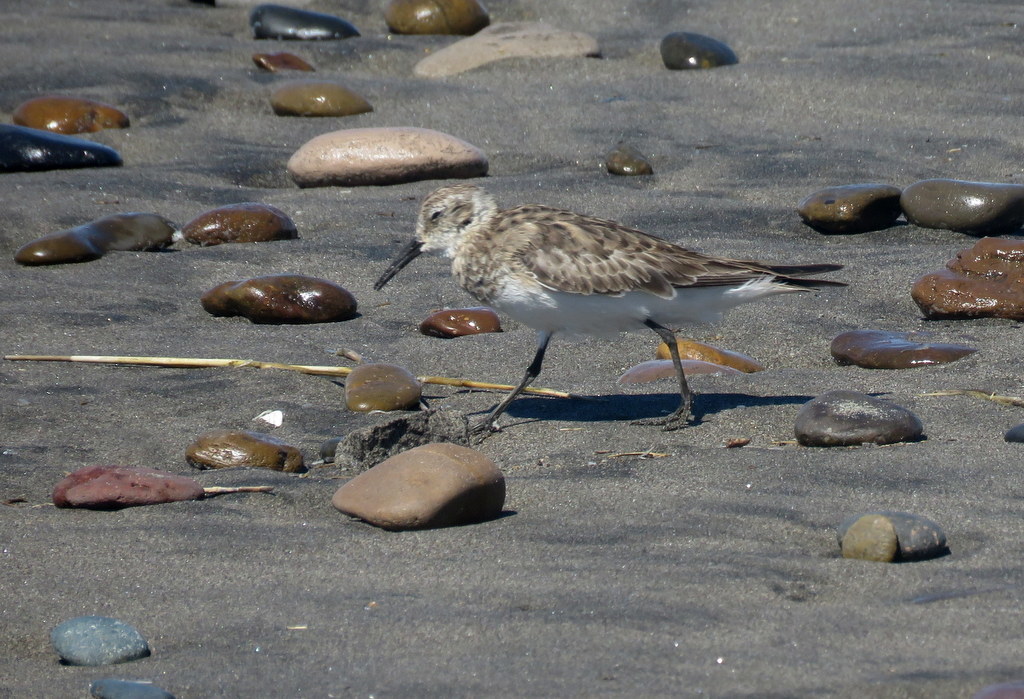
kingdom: Animalia
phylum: Chordata
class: Aves
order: Charadriiformes
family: Scolopacidae
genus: Calidris
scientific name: Calidris bairdii
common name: Baird's sandpiper
